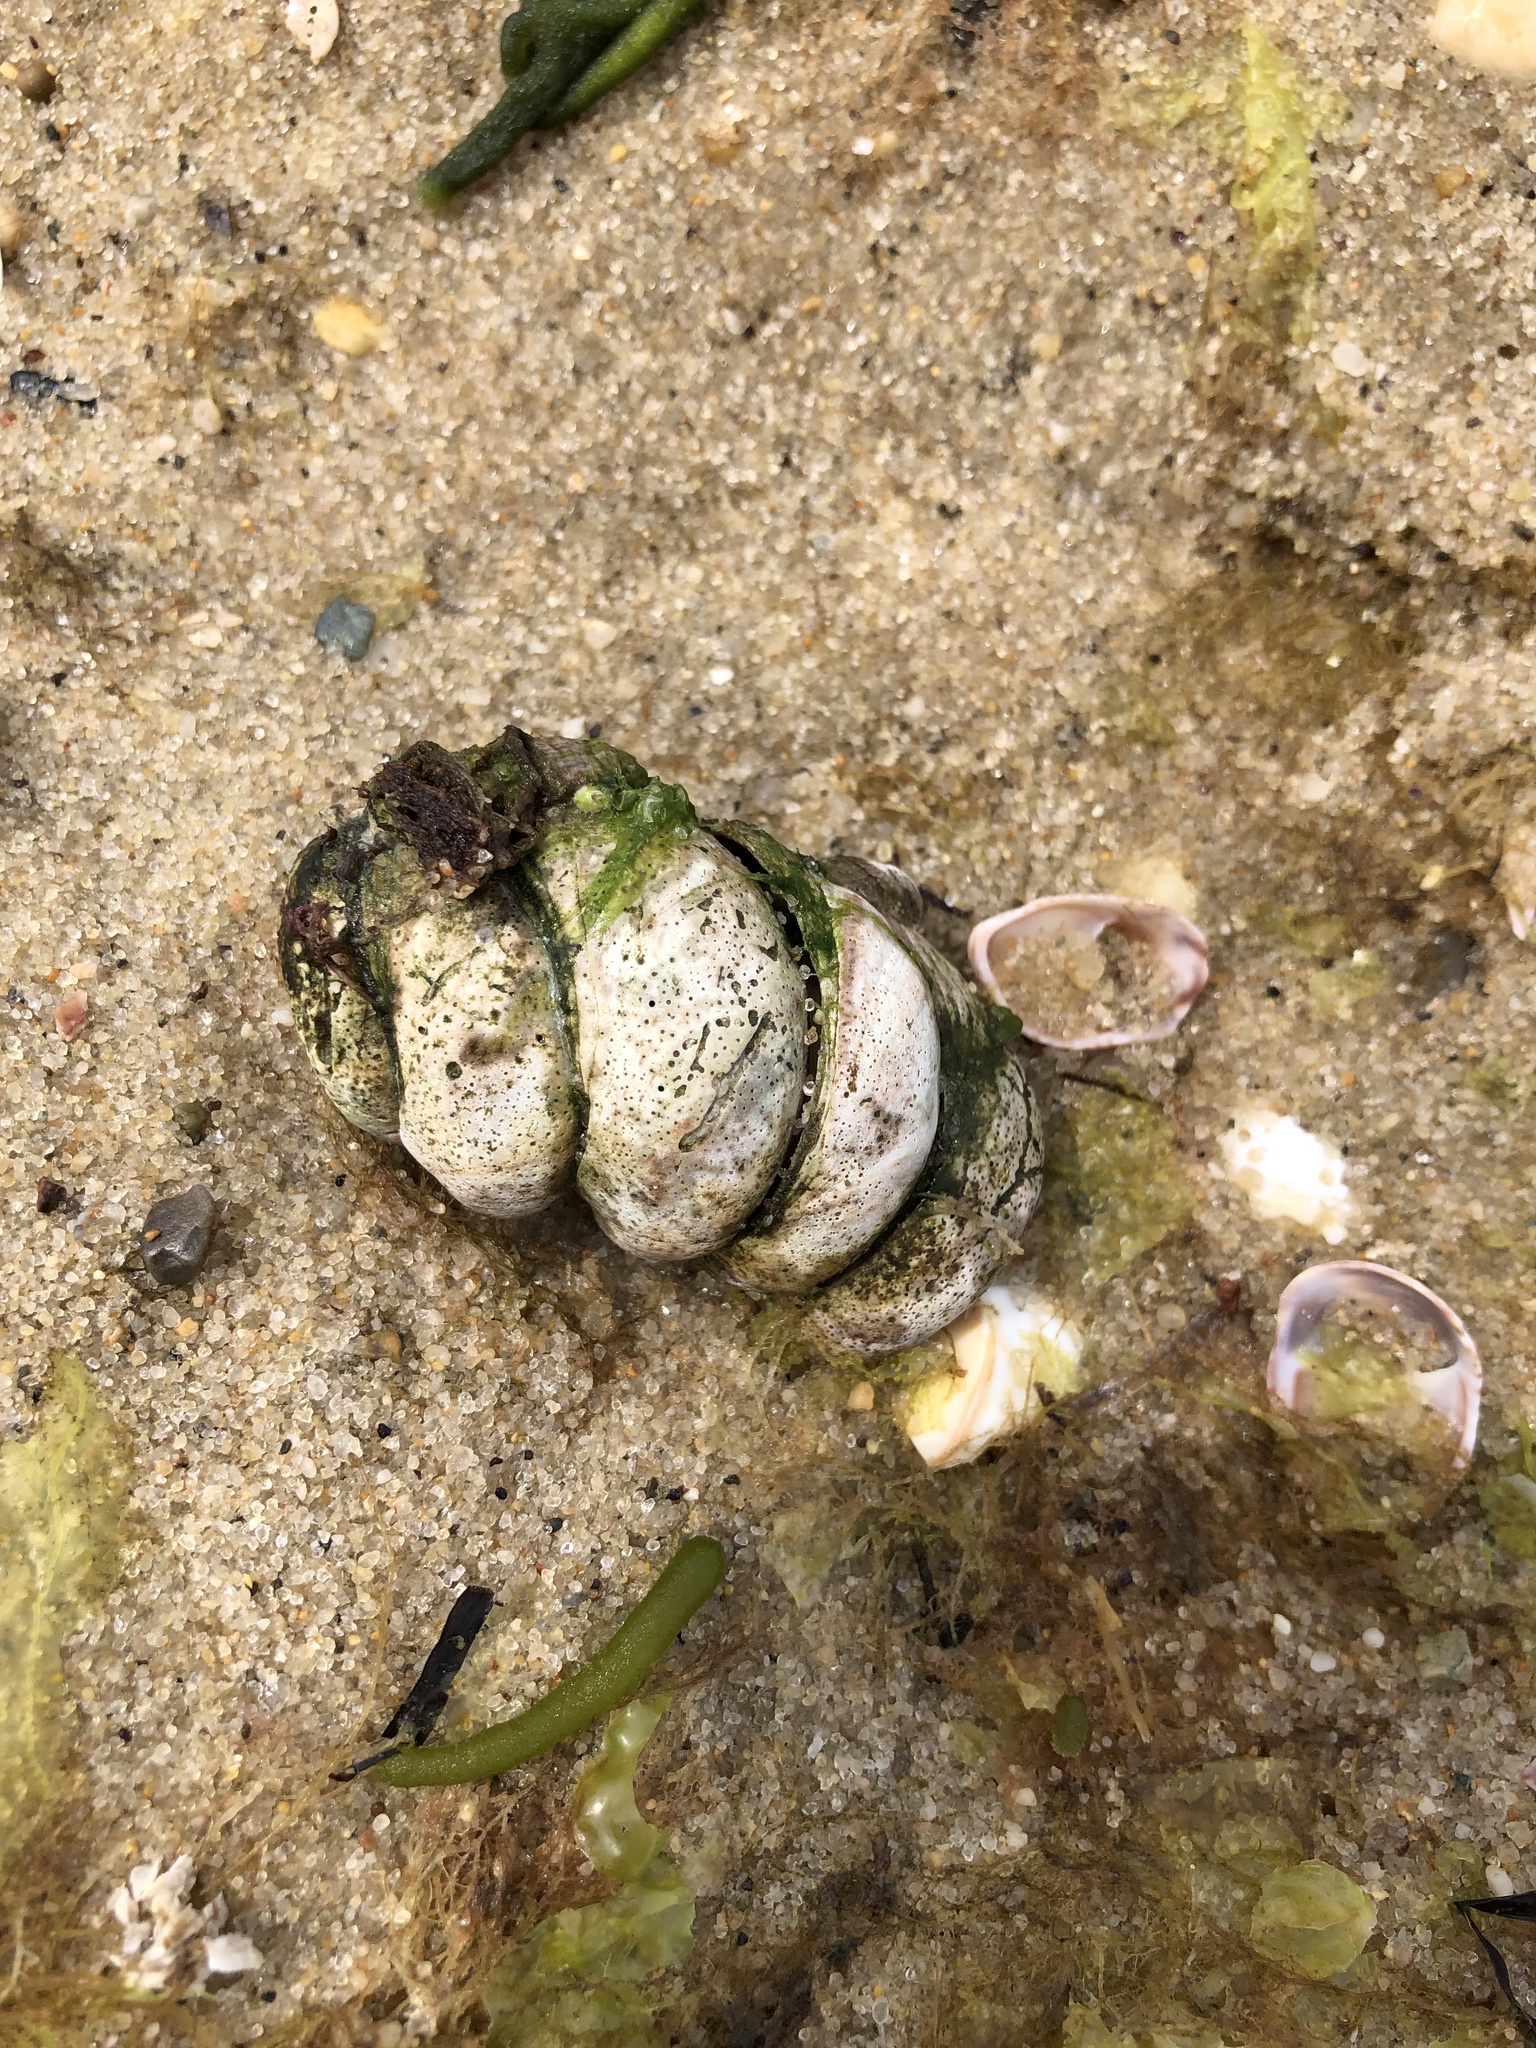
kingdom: Animalia
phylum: Mollusca
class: Gastropoda
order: Littorinimorpha
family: Calyptraeidae
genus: Crepidula
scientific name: Crepidula fornicata
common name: Slipper limpet
